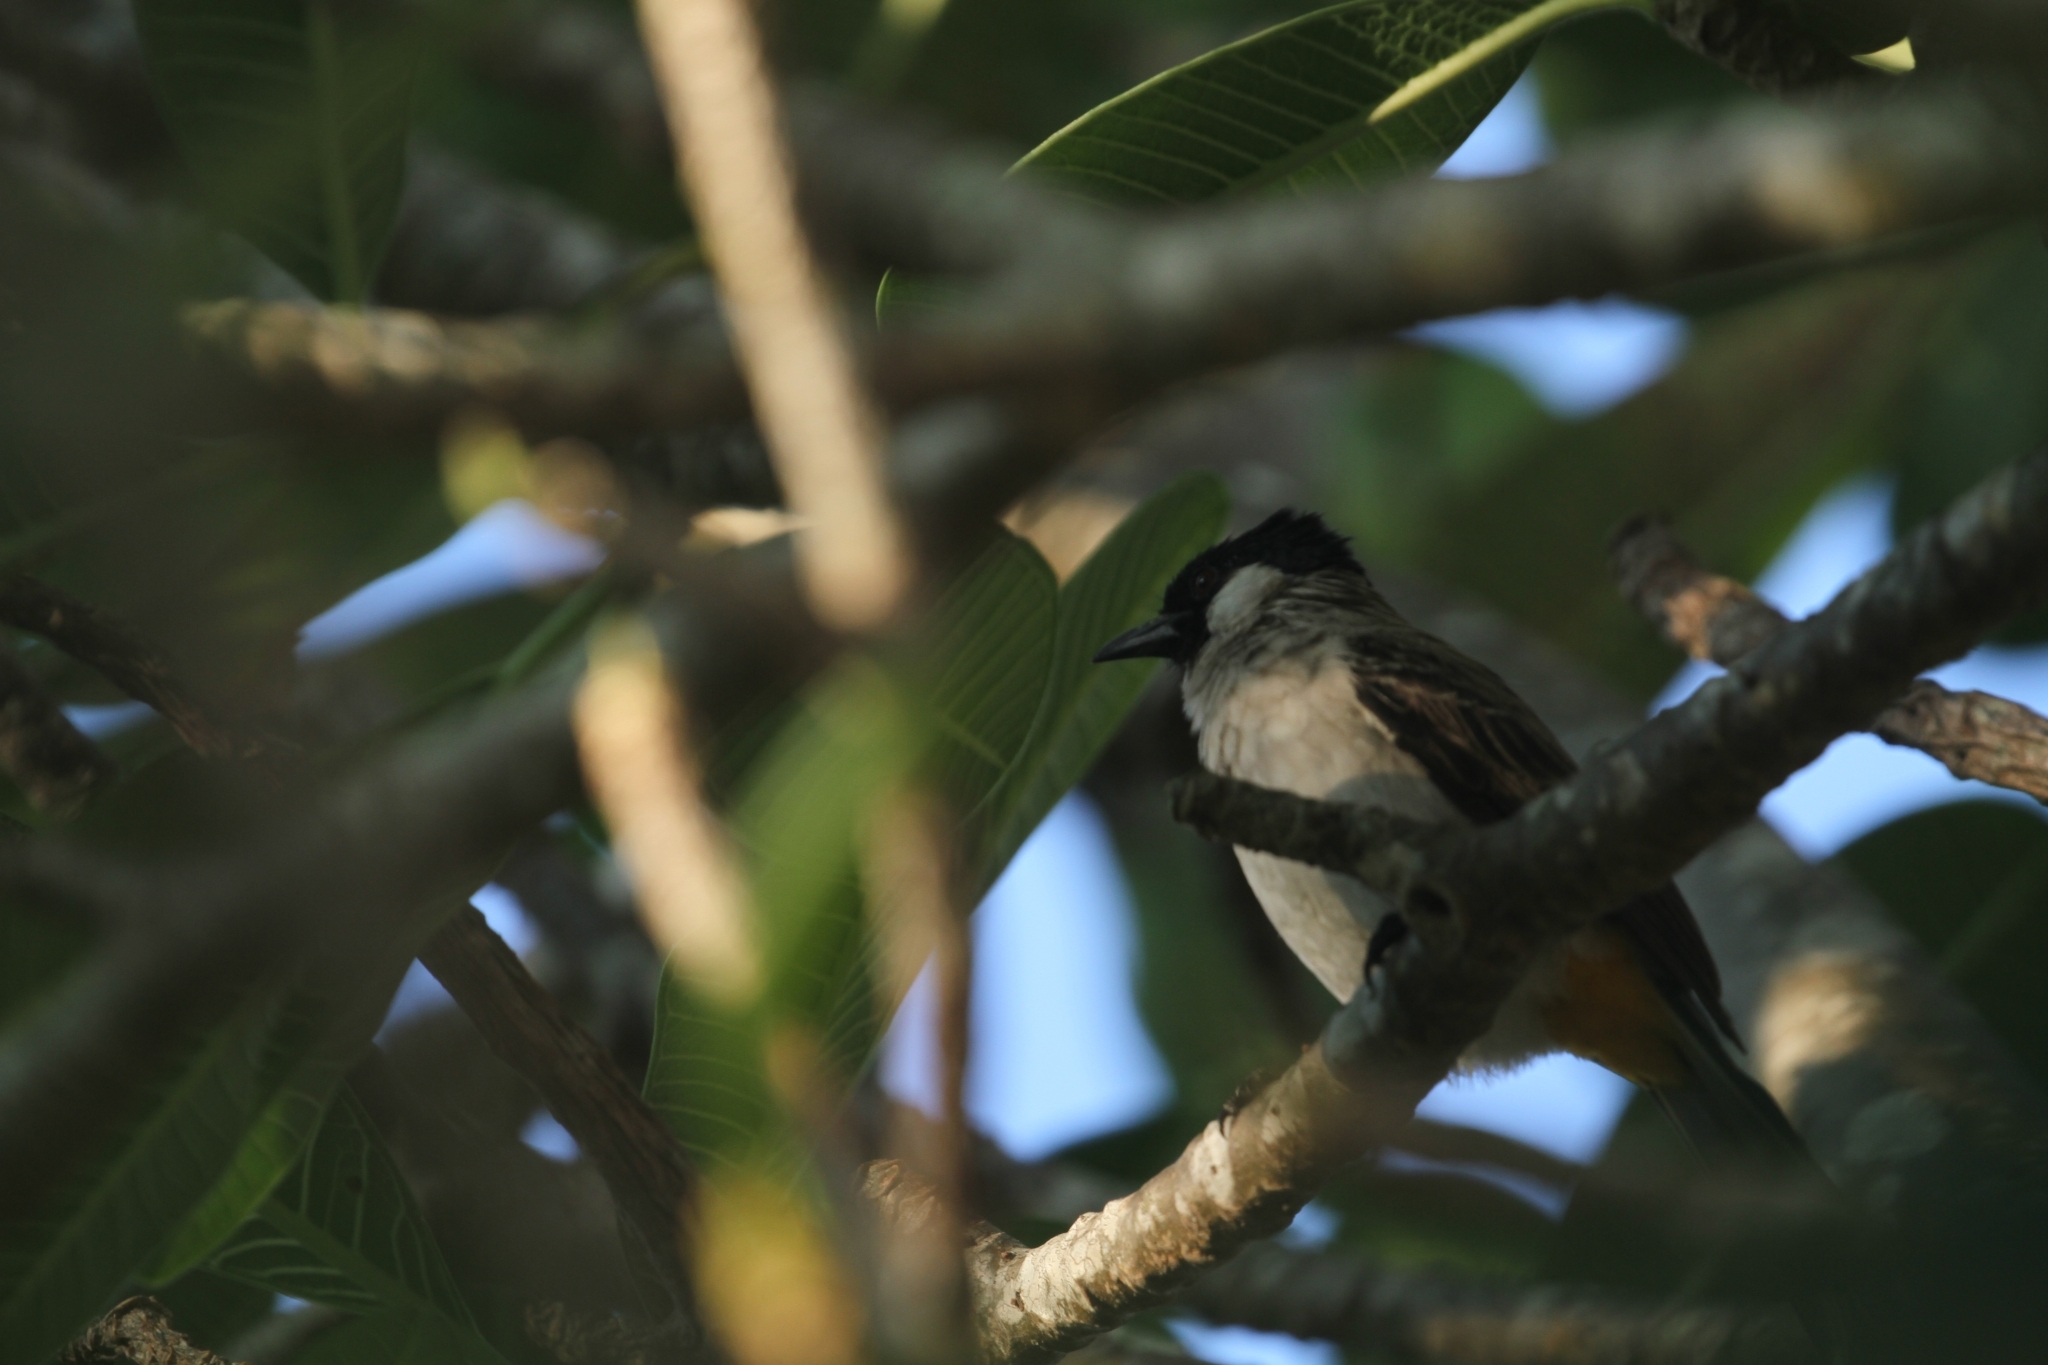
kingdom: Animalia
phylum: Chordata
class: Aves
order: Passeriformes
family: Pycnonotidae
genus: Pycnonotus
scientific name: Pycnonotus aurigaster
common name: Sooty-headed bulbul
